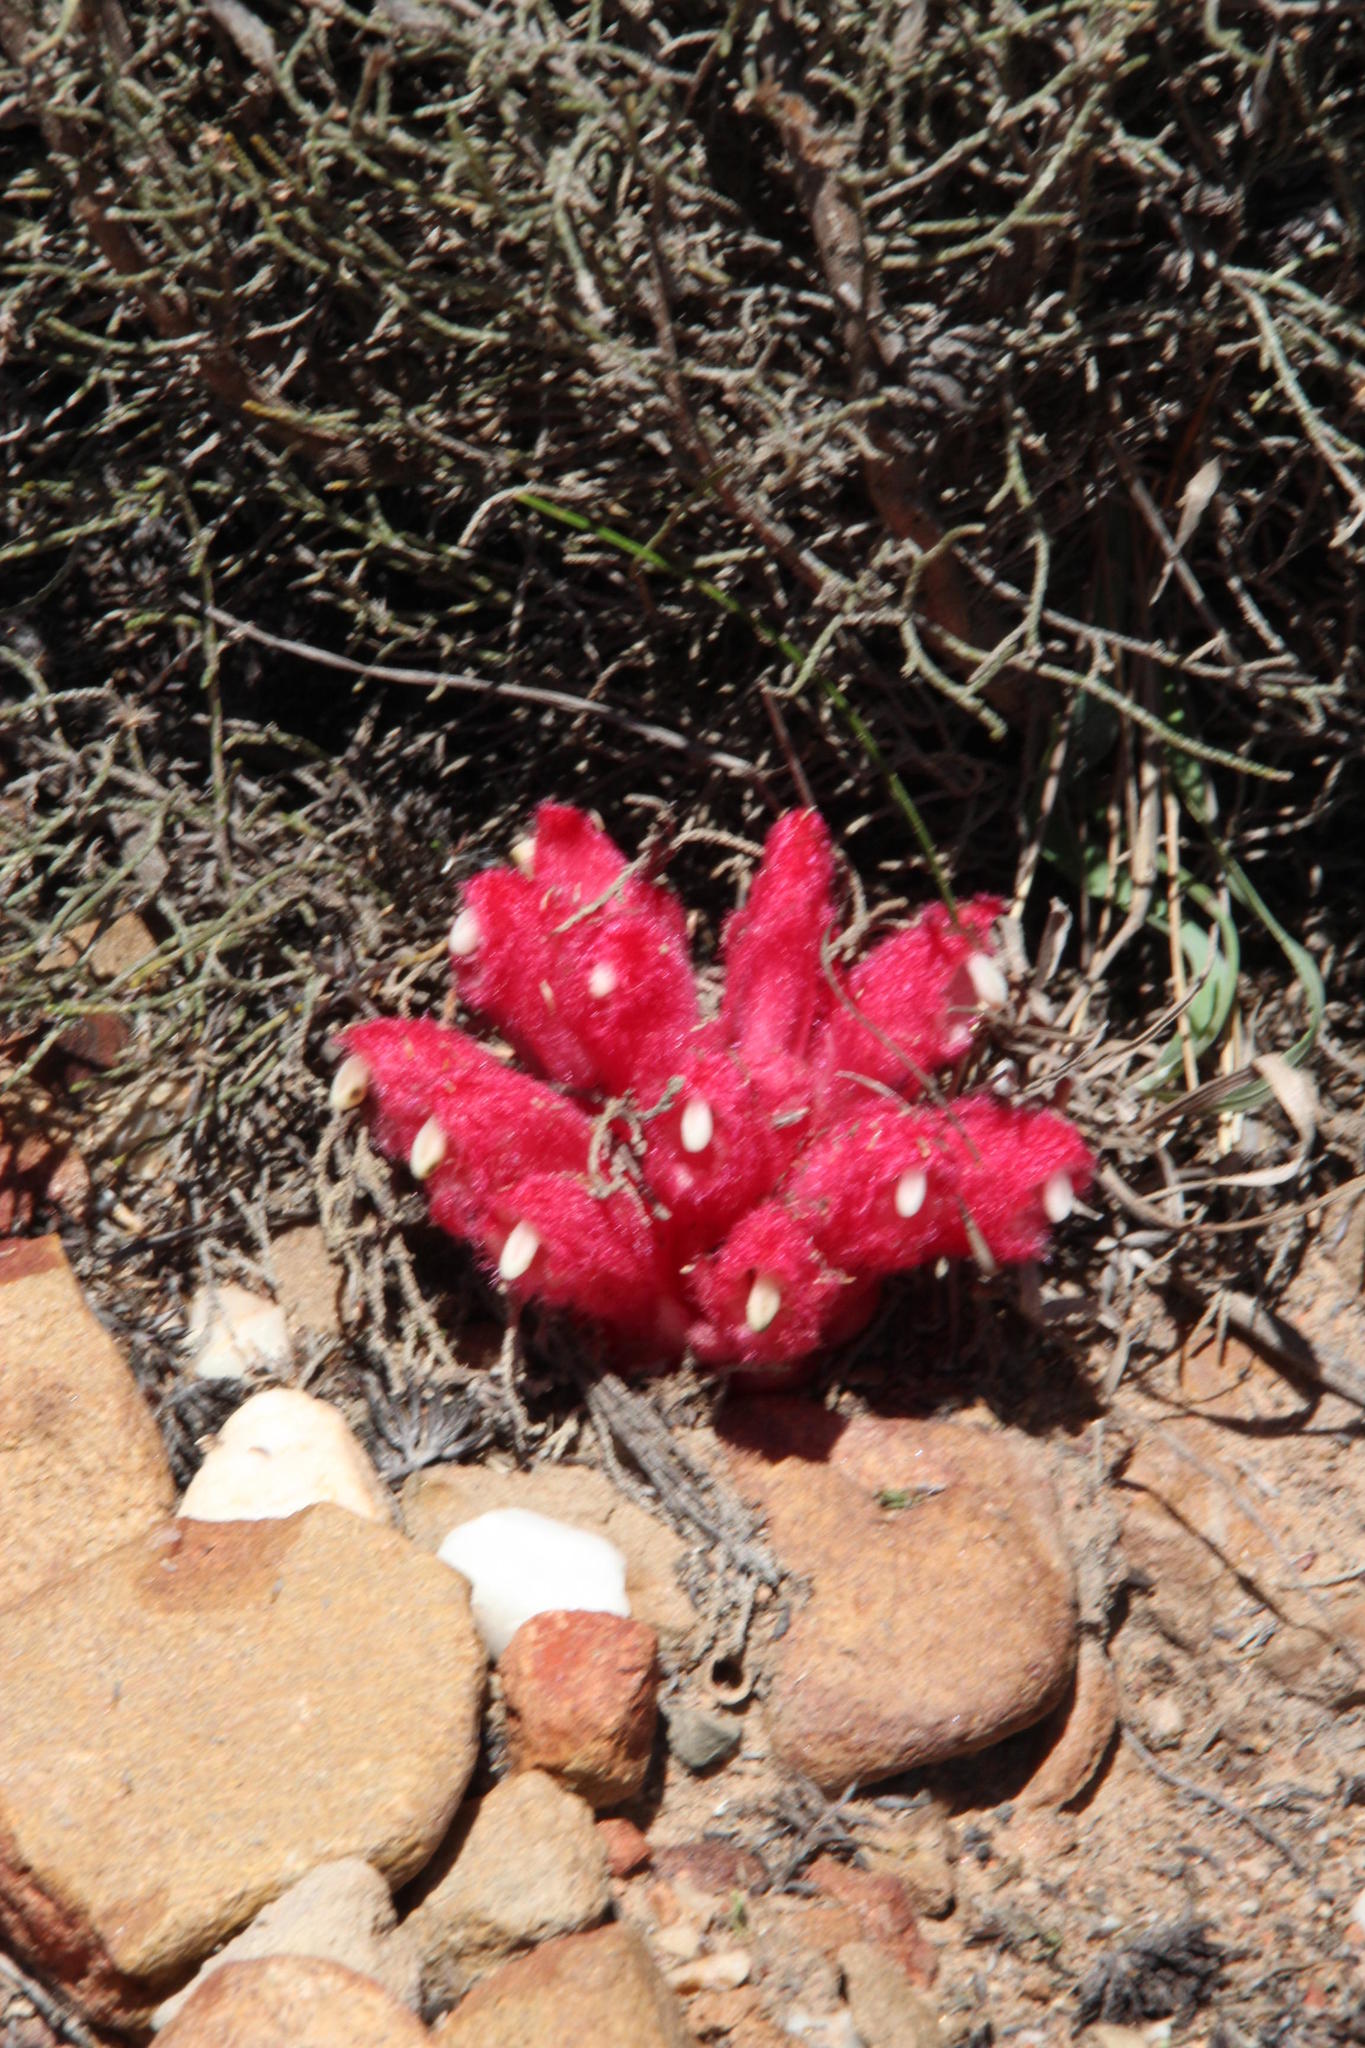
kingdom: Plantae
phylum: Tracheophyta
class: Magnoliopsida
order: Lamiales
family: Orobanchaceae
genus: Hyobanche
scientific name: Hyobanche sanguinea
